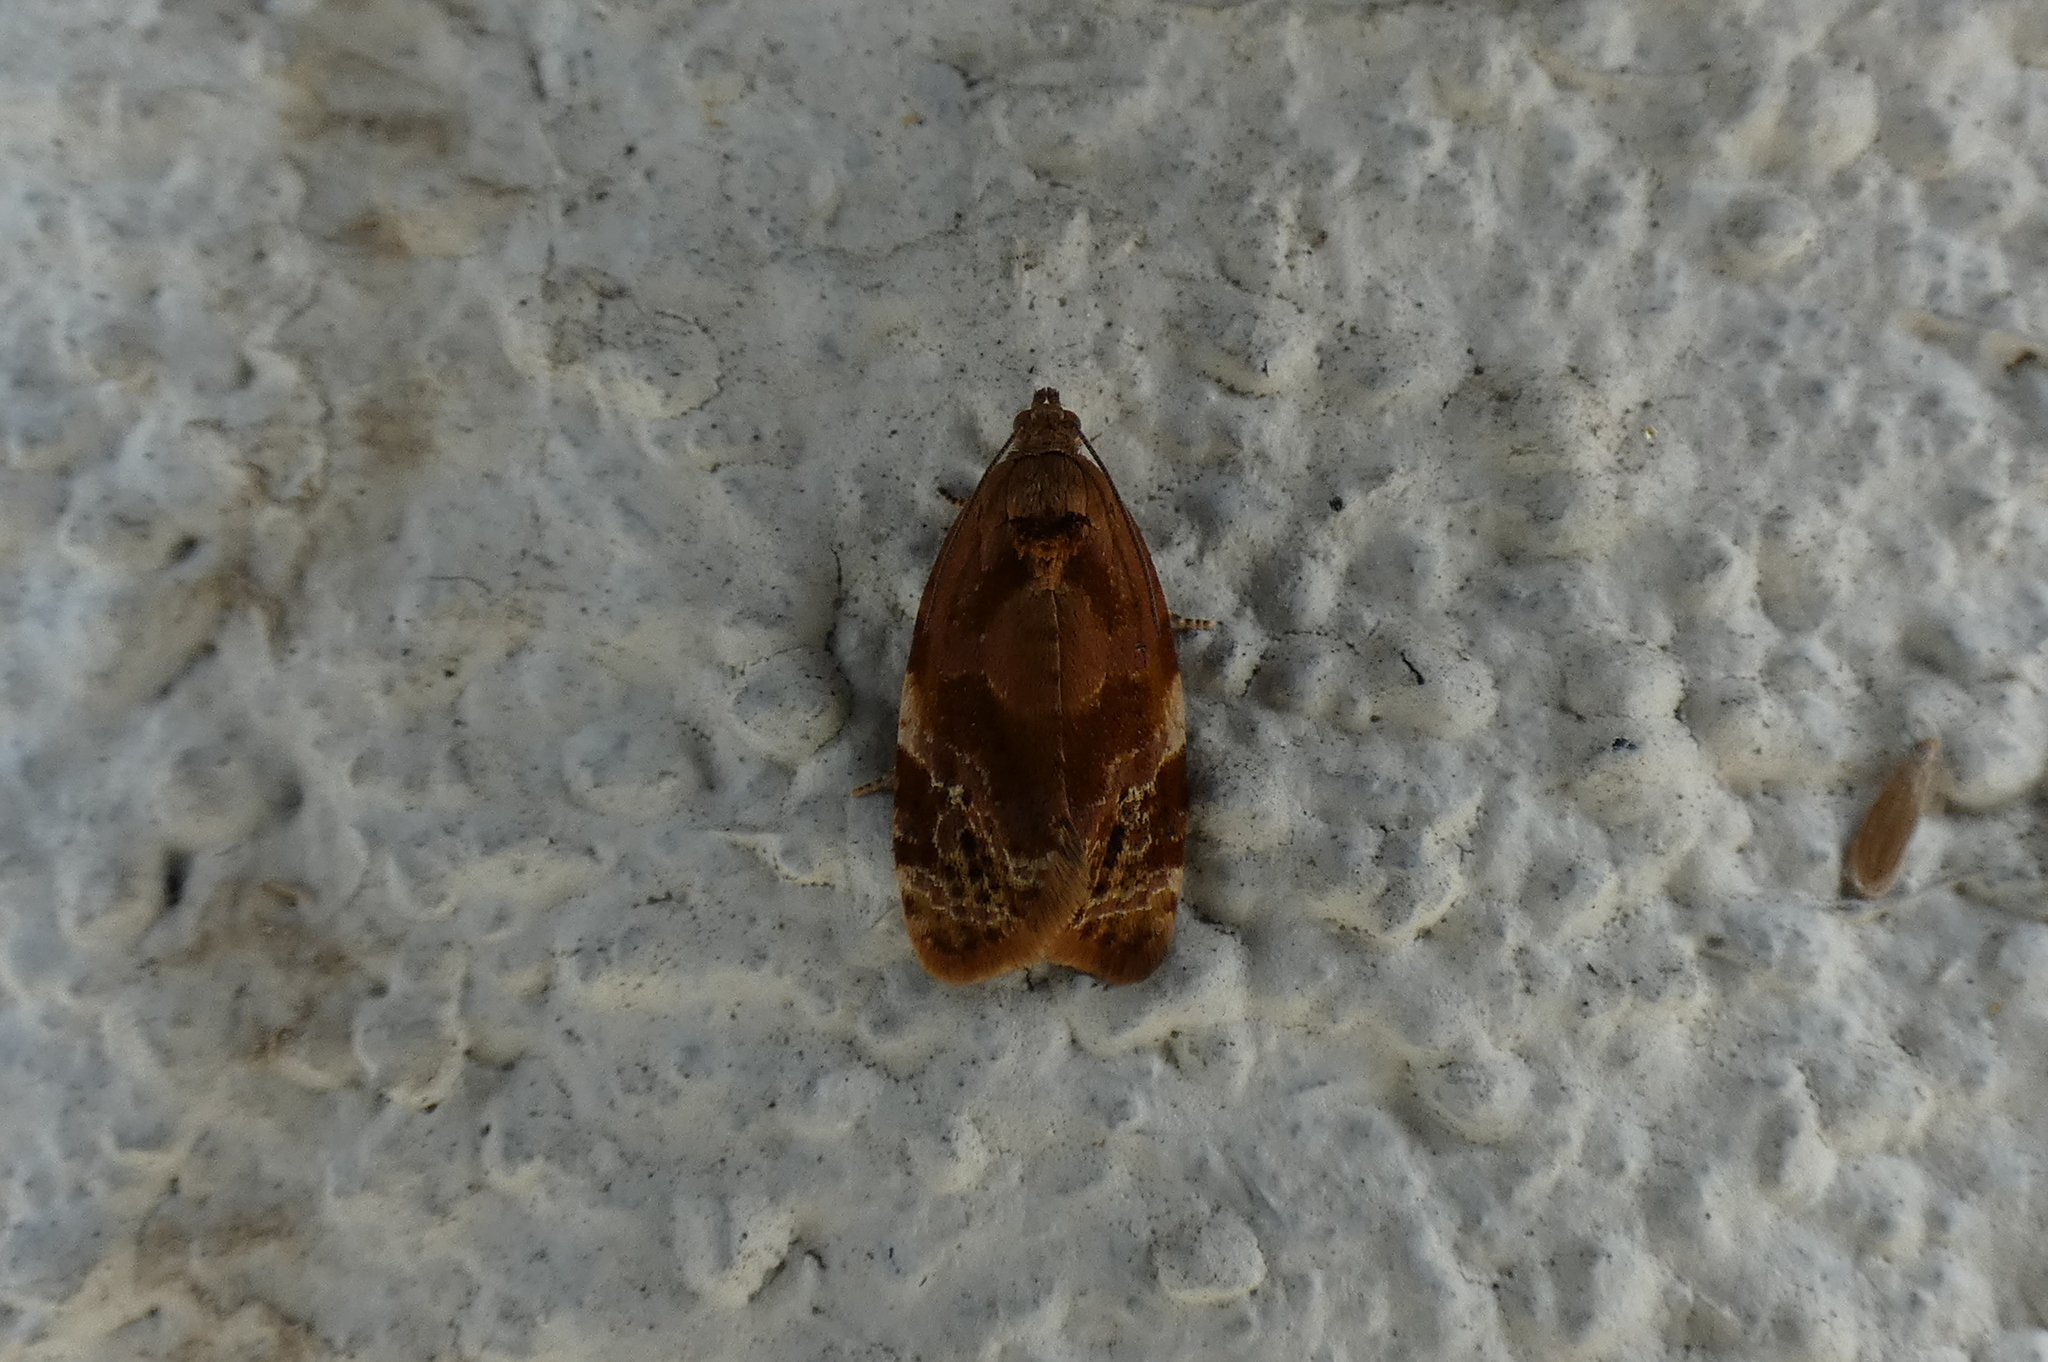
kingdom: Animalia
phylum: Arthropoda
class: Insecta
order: Lepidoptera
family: Tortricidae
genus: Ditula
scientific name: Ditula angustiorana
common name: Red-barred tortrix
